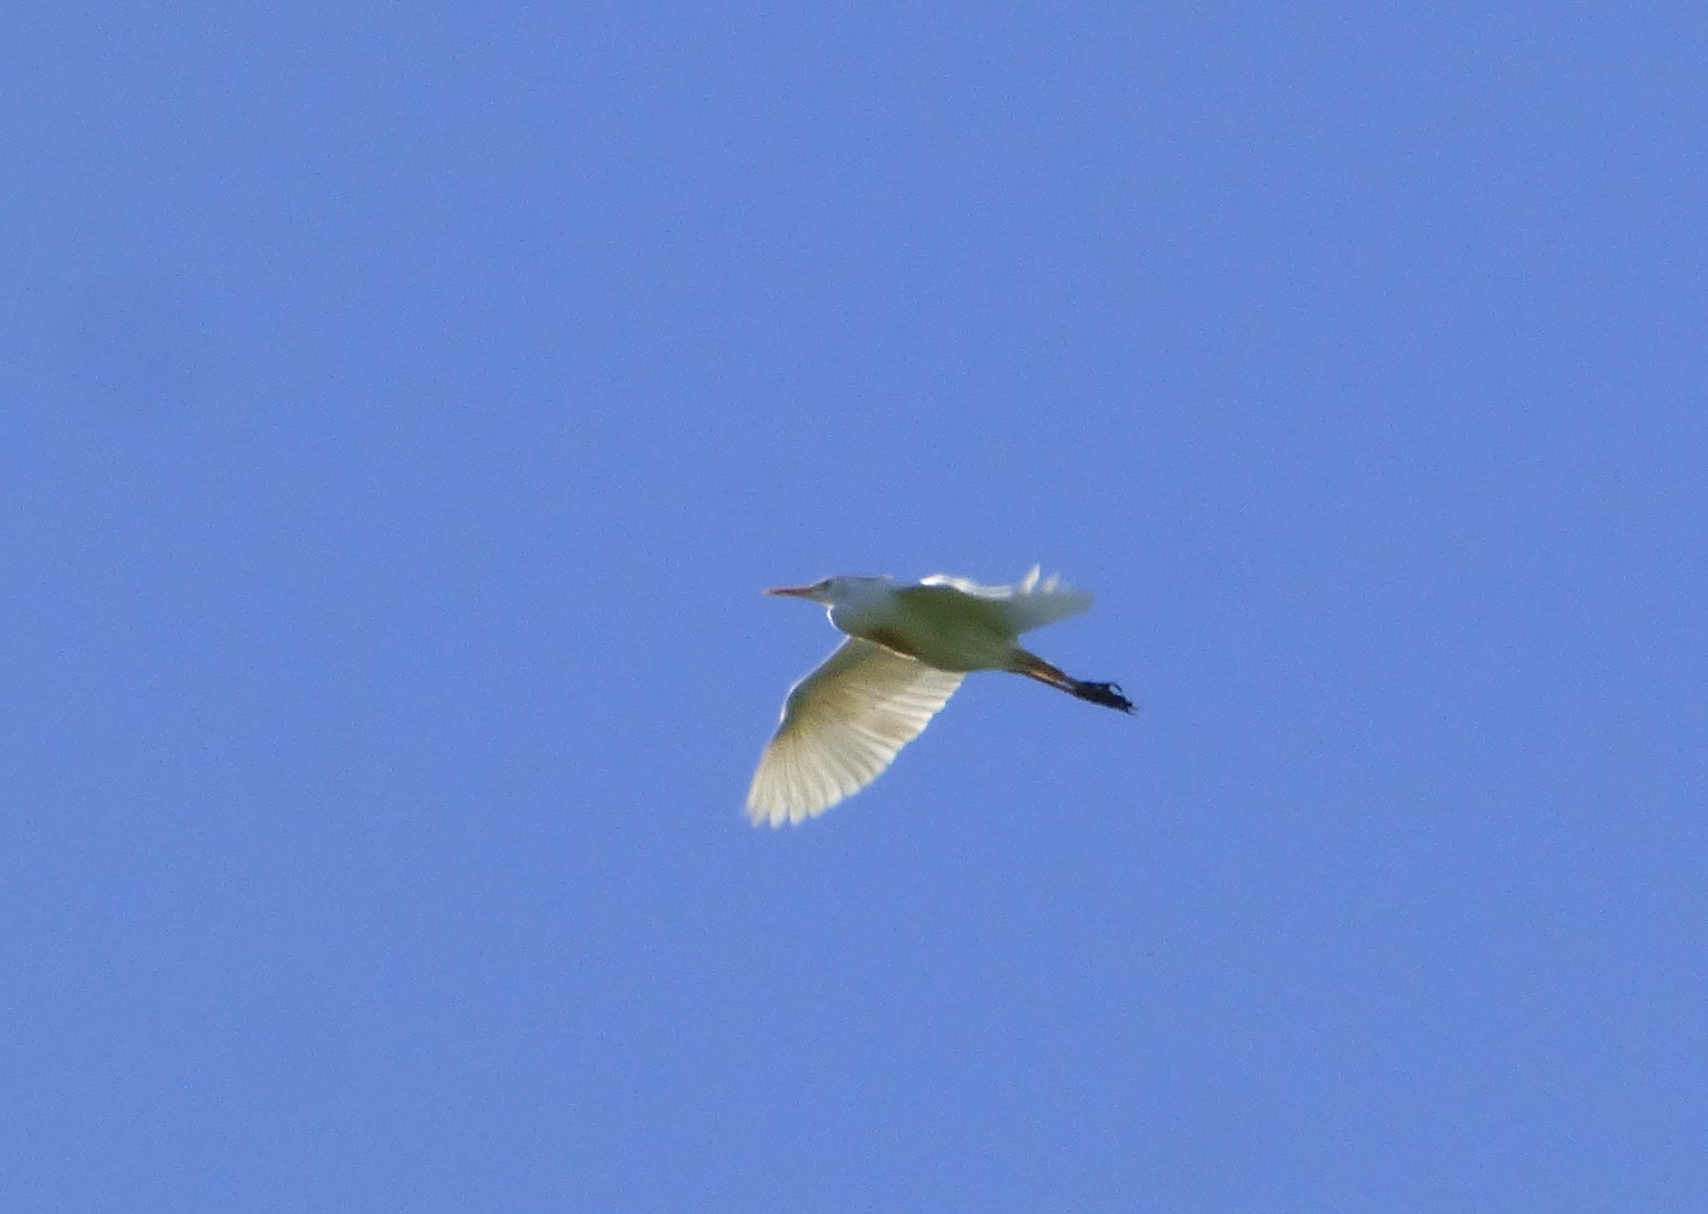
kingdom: Animalia
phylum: Chordata
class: Aves
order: Pelecaniformes
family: Ardeidae
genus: Bubulcus
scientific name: Bubulcus ibis
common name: Cattle egret
